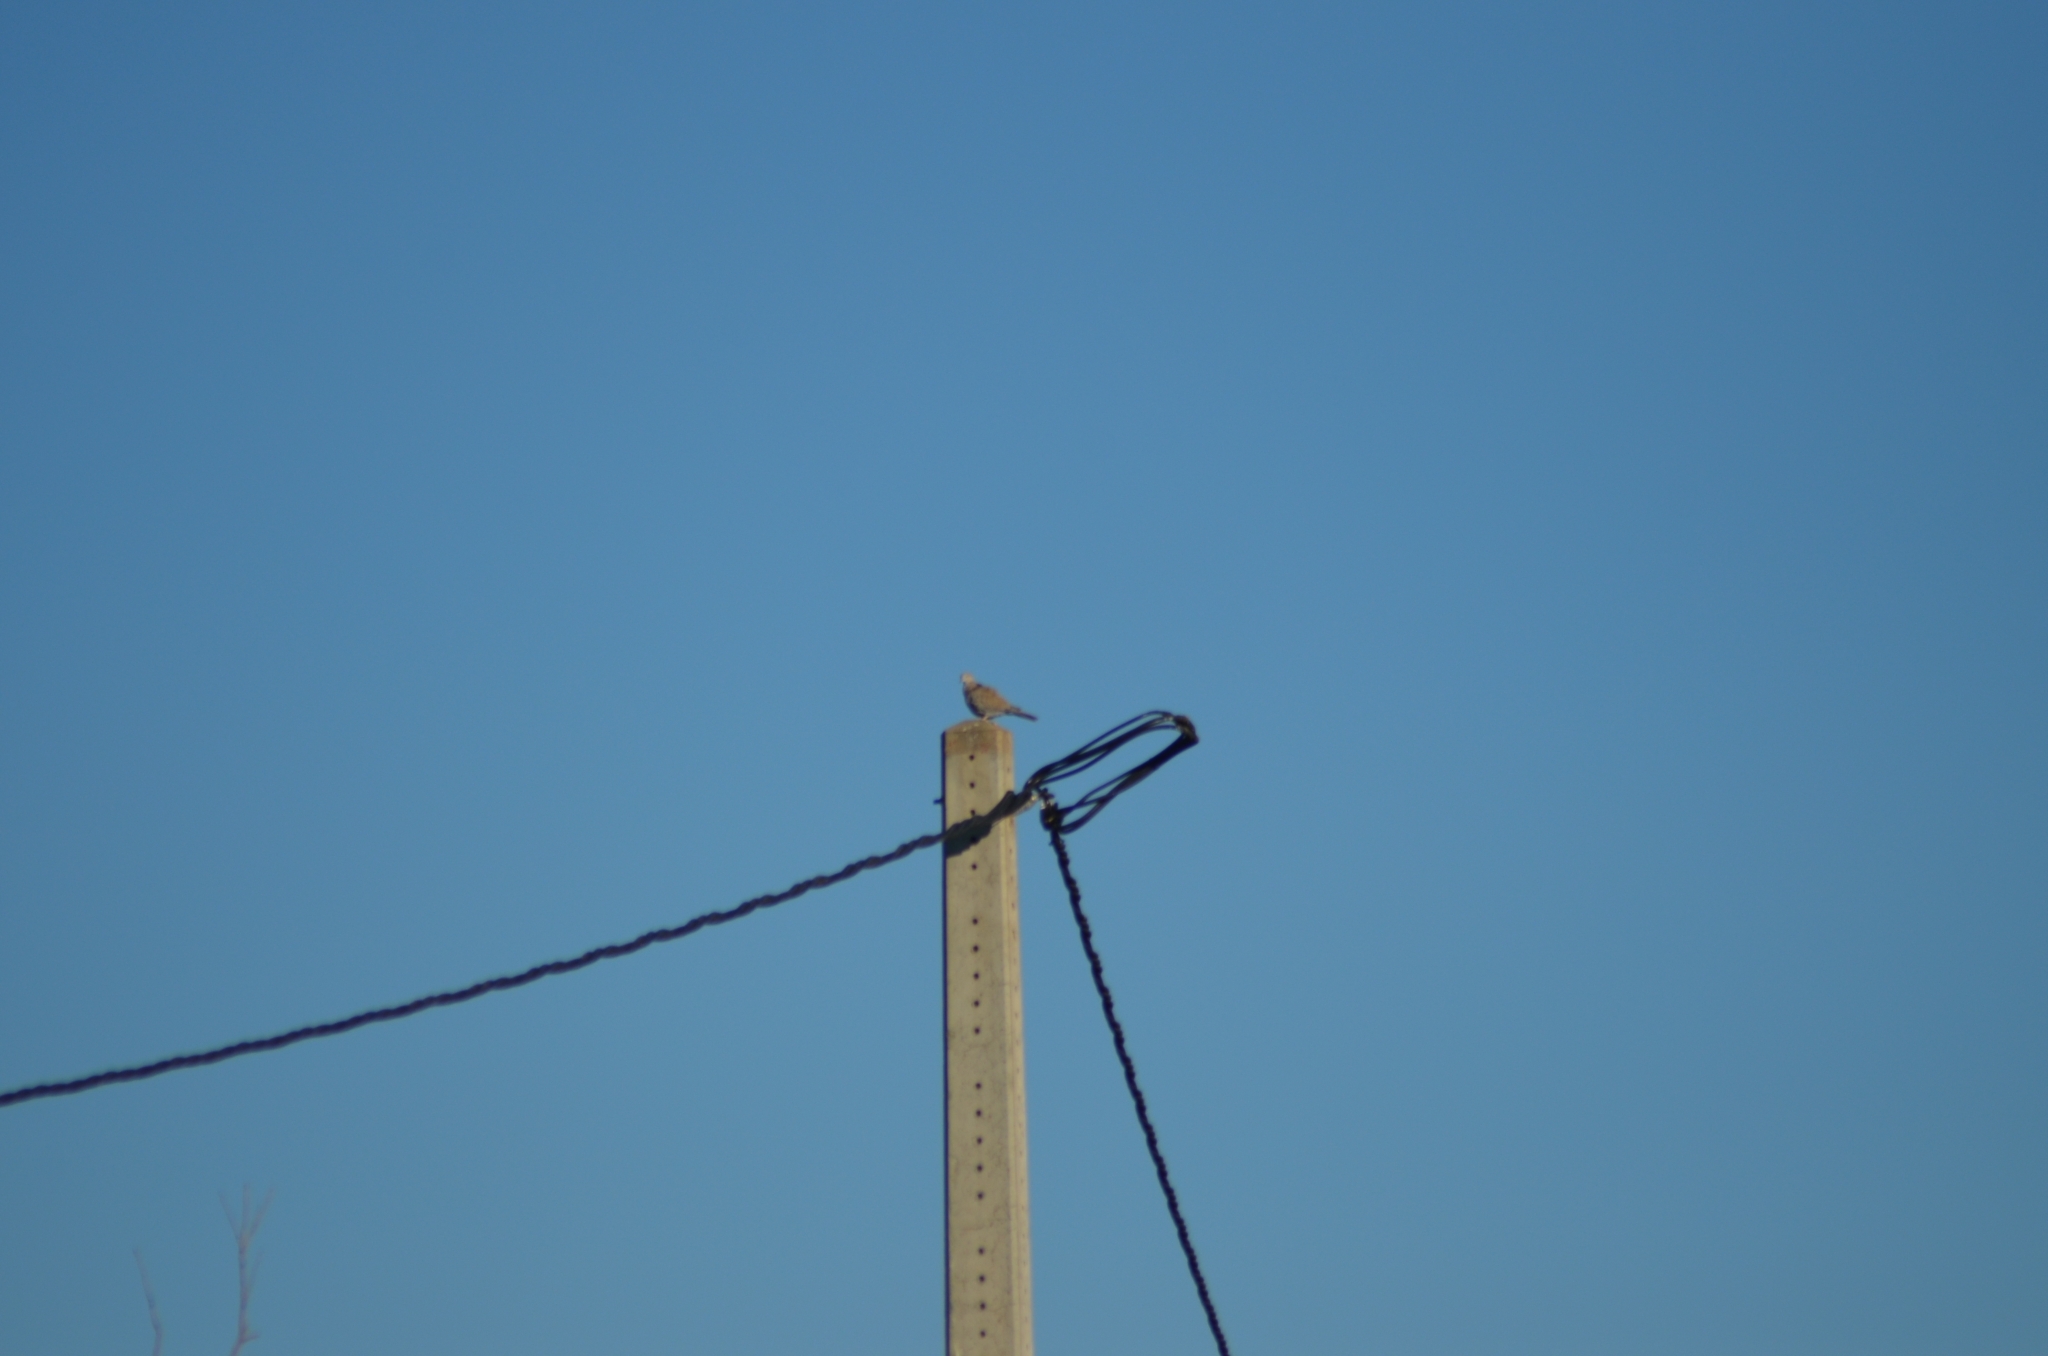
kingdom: Animalia
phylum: Chordata
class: Aves
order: Columbiformes
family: Columbidae
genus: Streptopelia
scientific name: Streptopelia decaocto
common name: Eurasian collared dove
